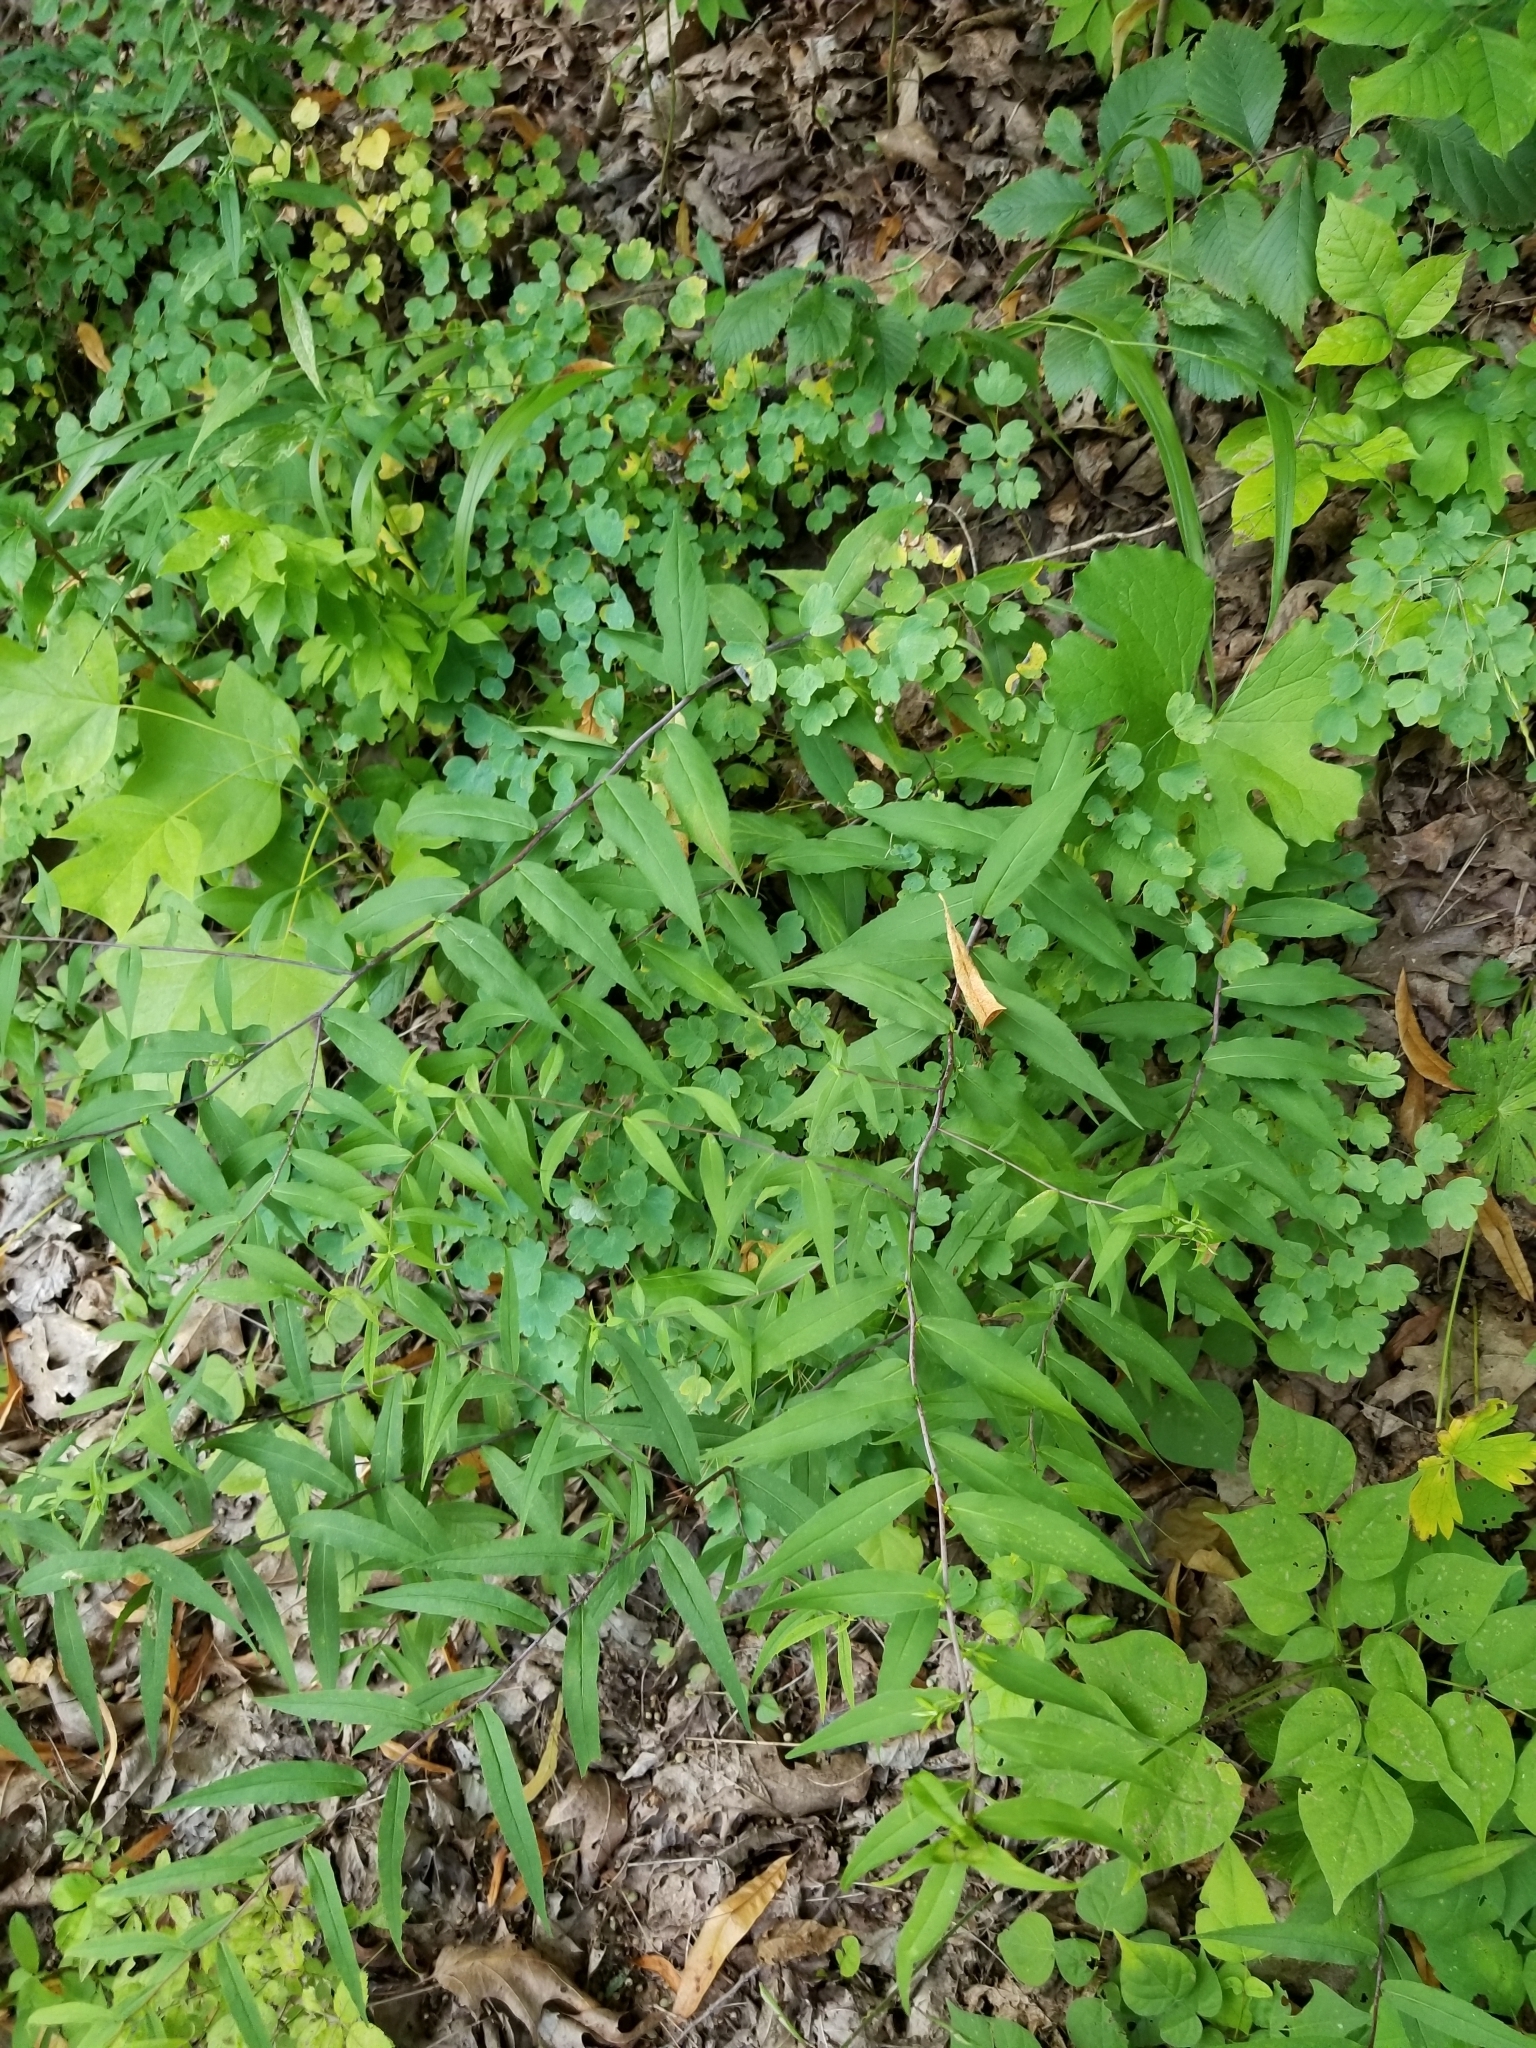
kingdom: Plantae
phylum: Tracheophyta
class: Magnoliopsida
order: Asterales
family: Asteraceae
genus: Solidago
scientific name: Solidago caesia
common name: Woodland goldenrod
